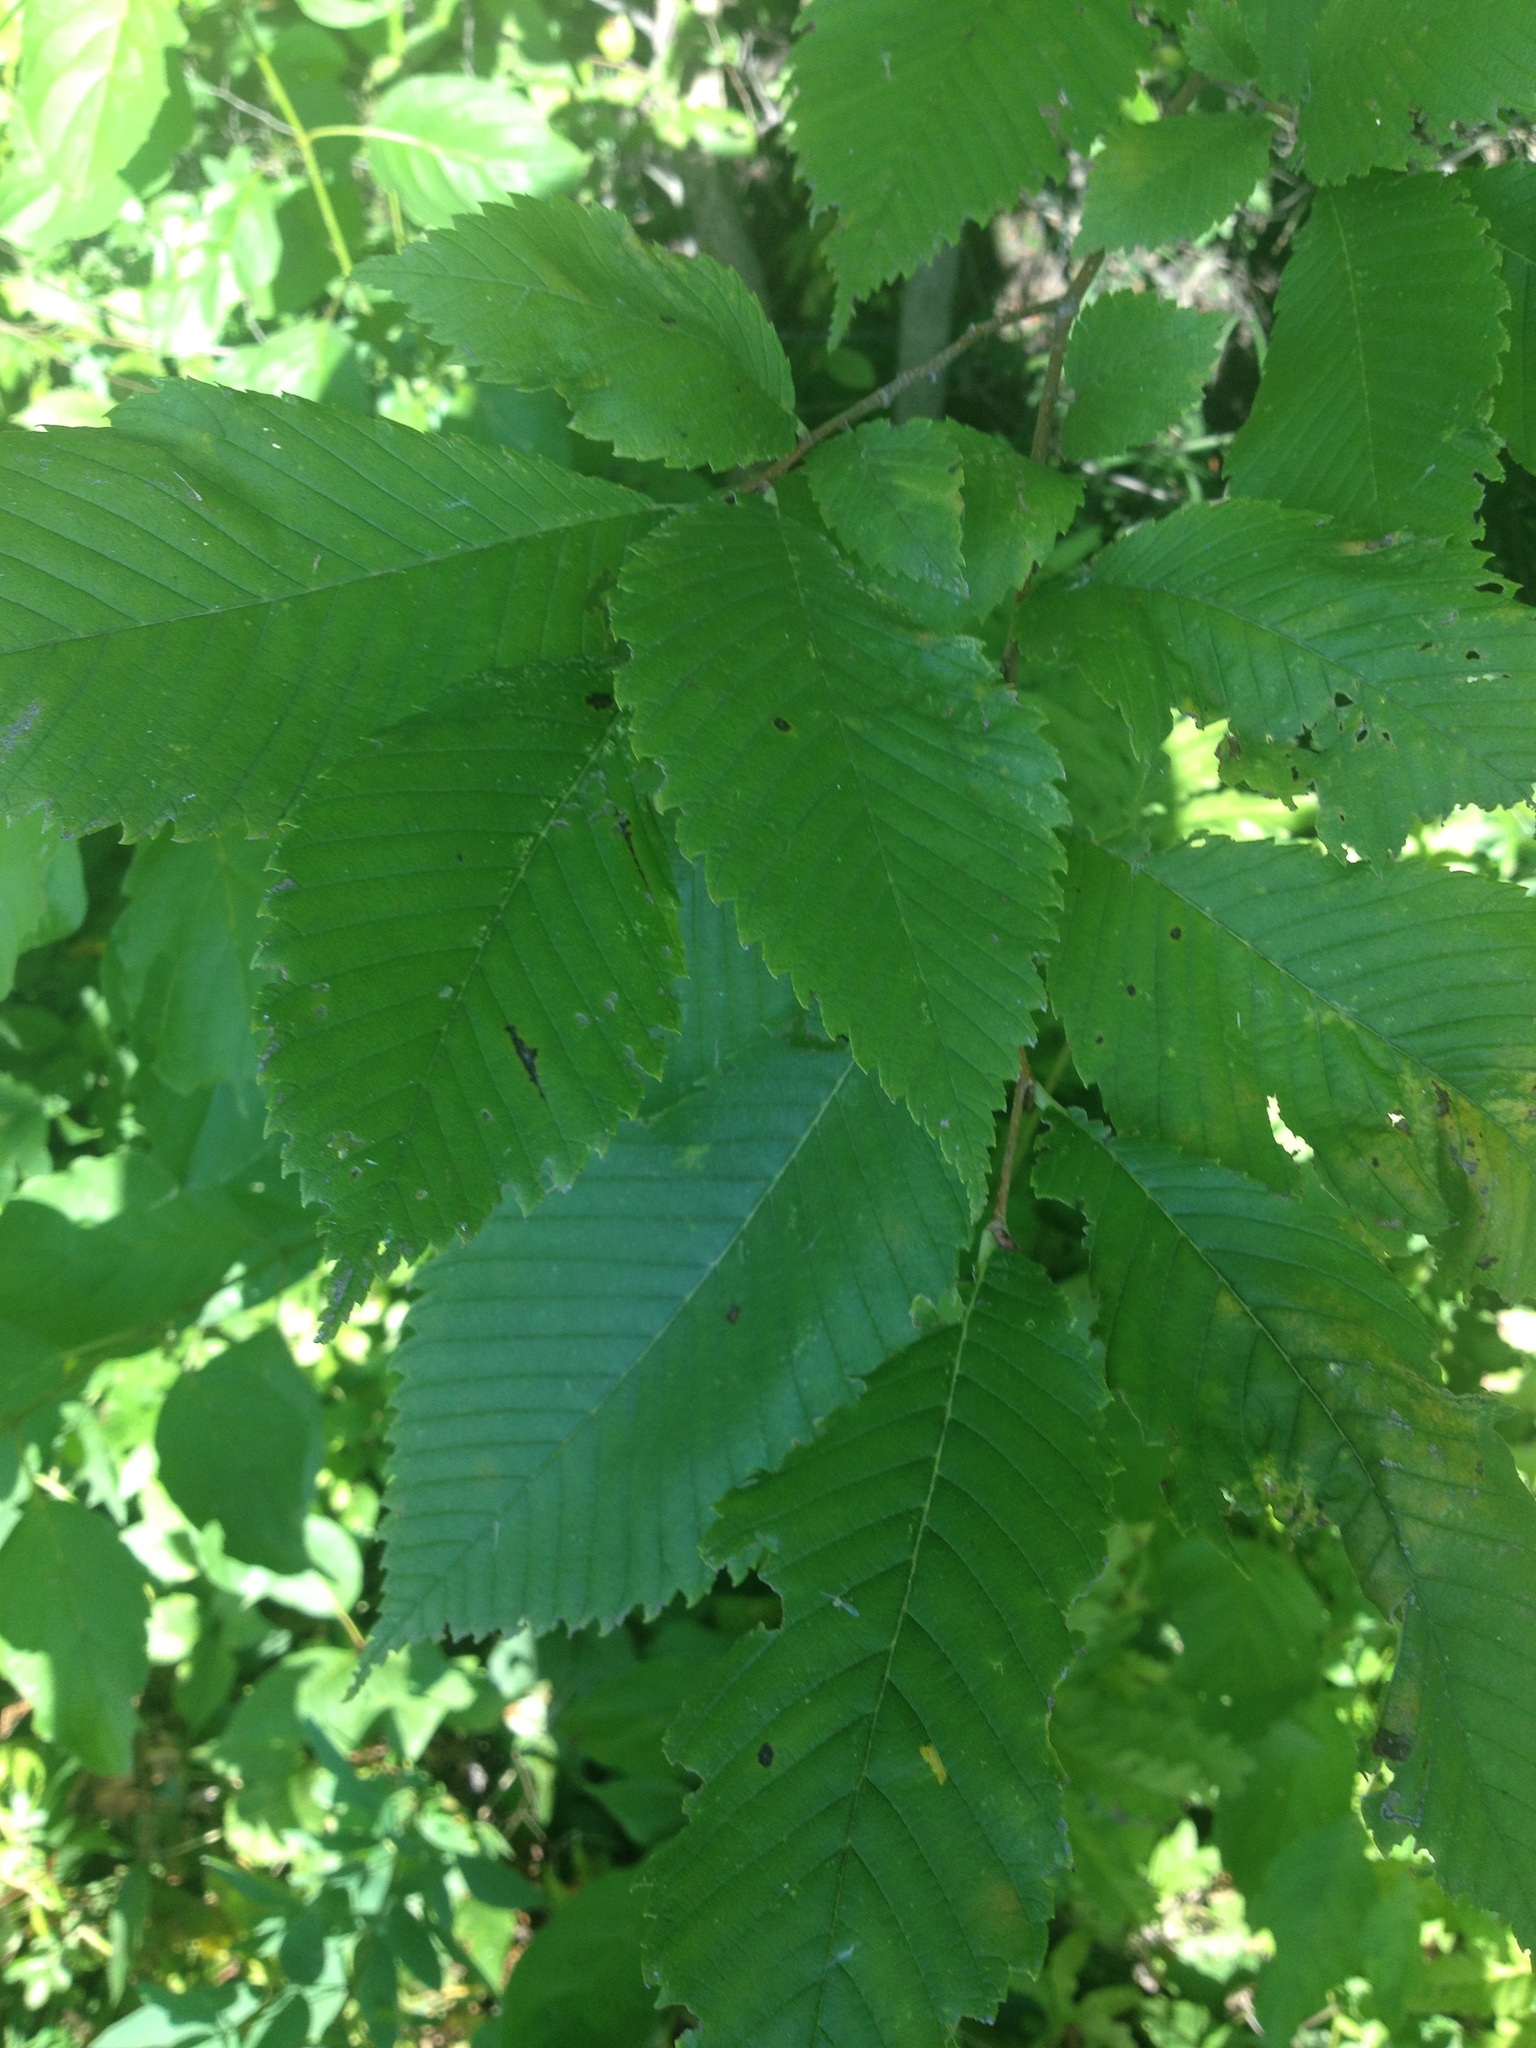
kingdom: Plantae
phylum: Tracheophyta
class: Magnoliopsida
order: Rosales
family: Ulmaceae
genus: Ulmus
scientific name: Ulmus americana
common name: American elm
